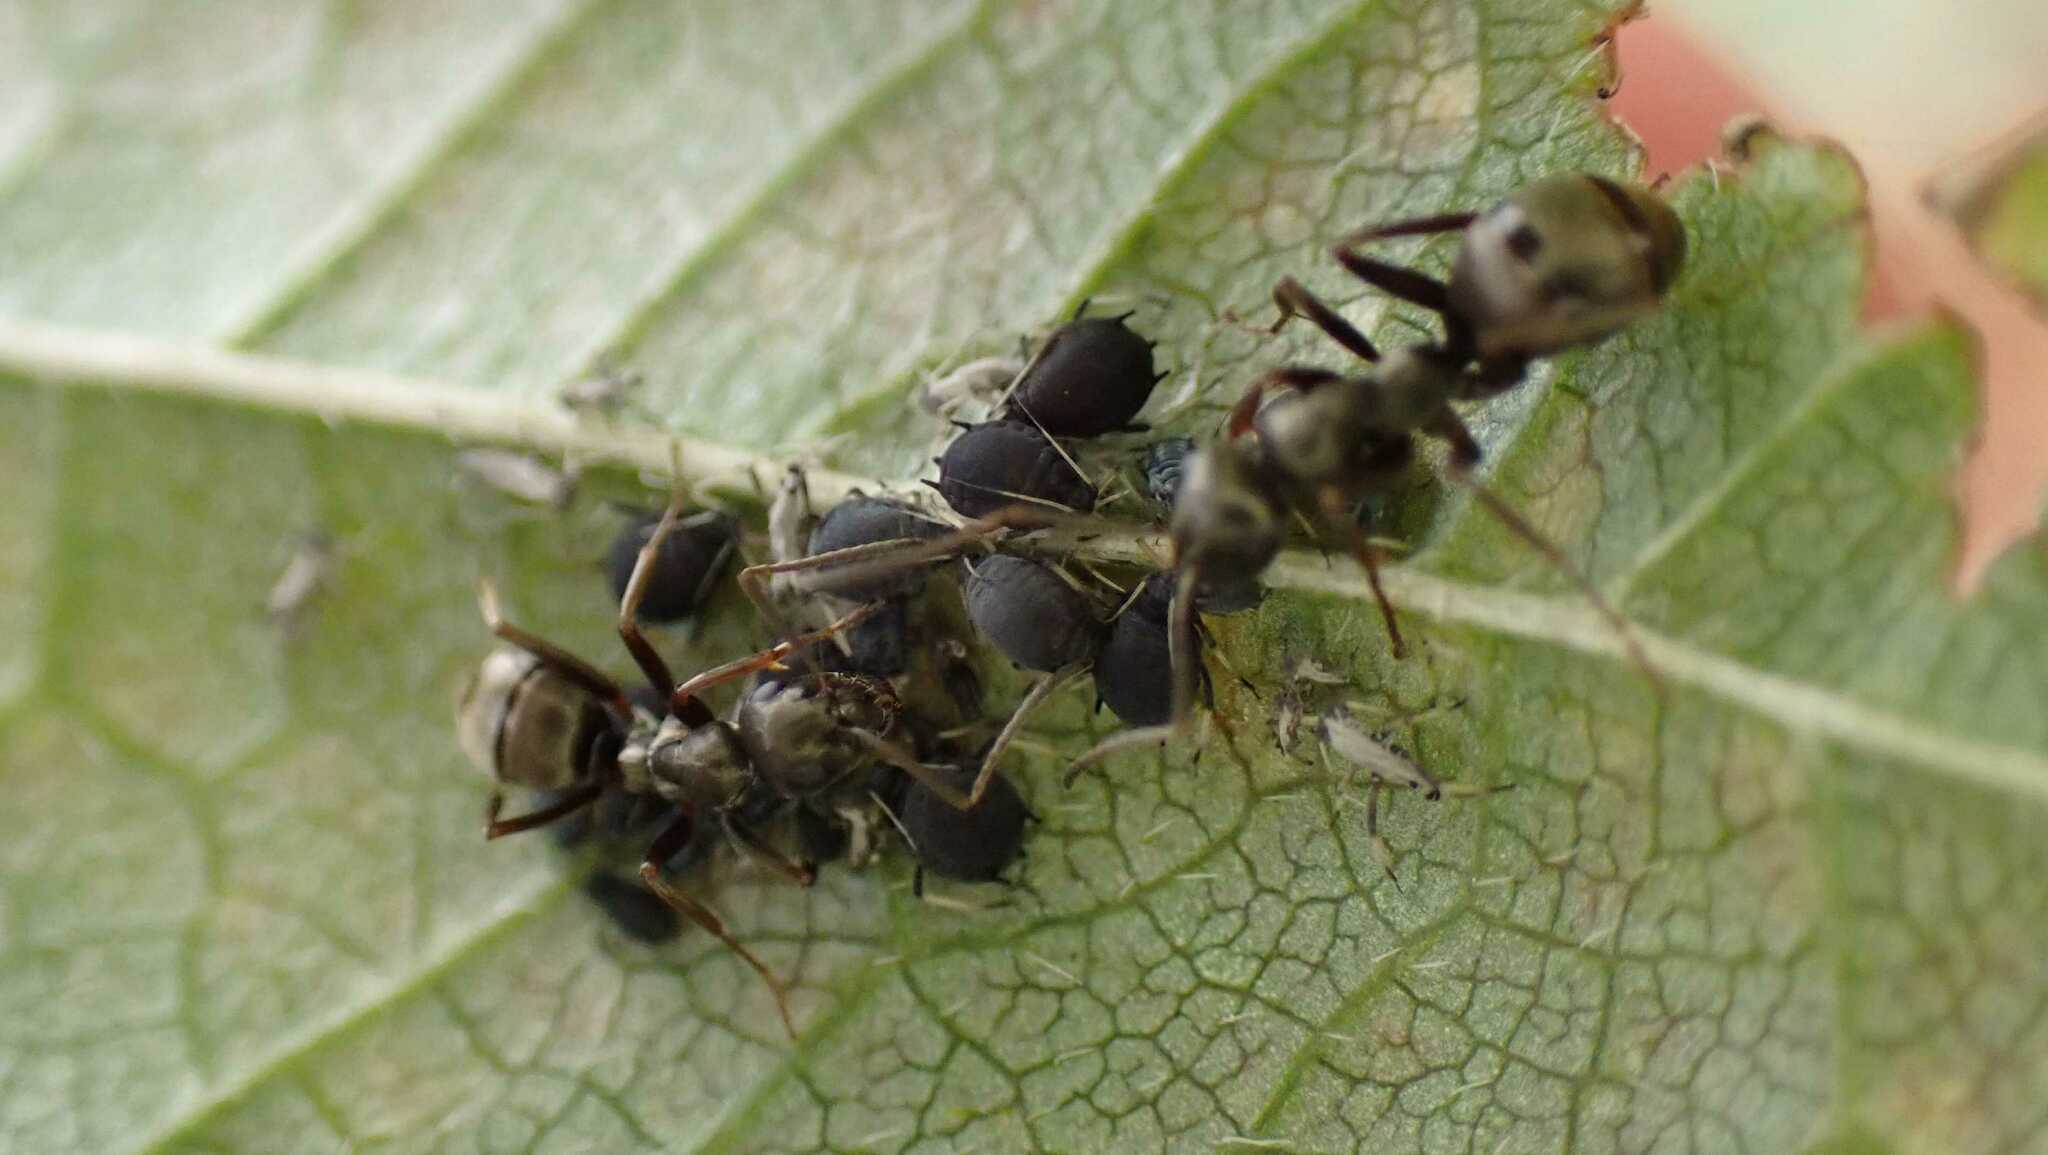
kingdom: Animalia
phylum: Arthropoda
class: Insecta
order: Hymenoptera
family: Formicidae
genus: Formica
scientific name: Formica
